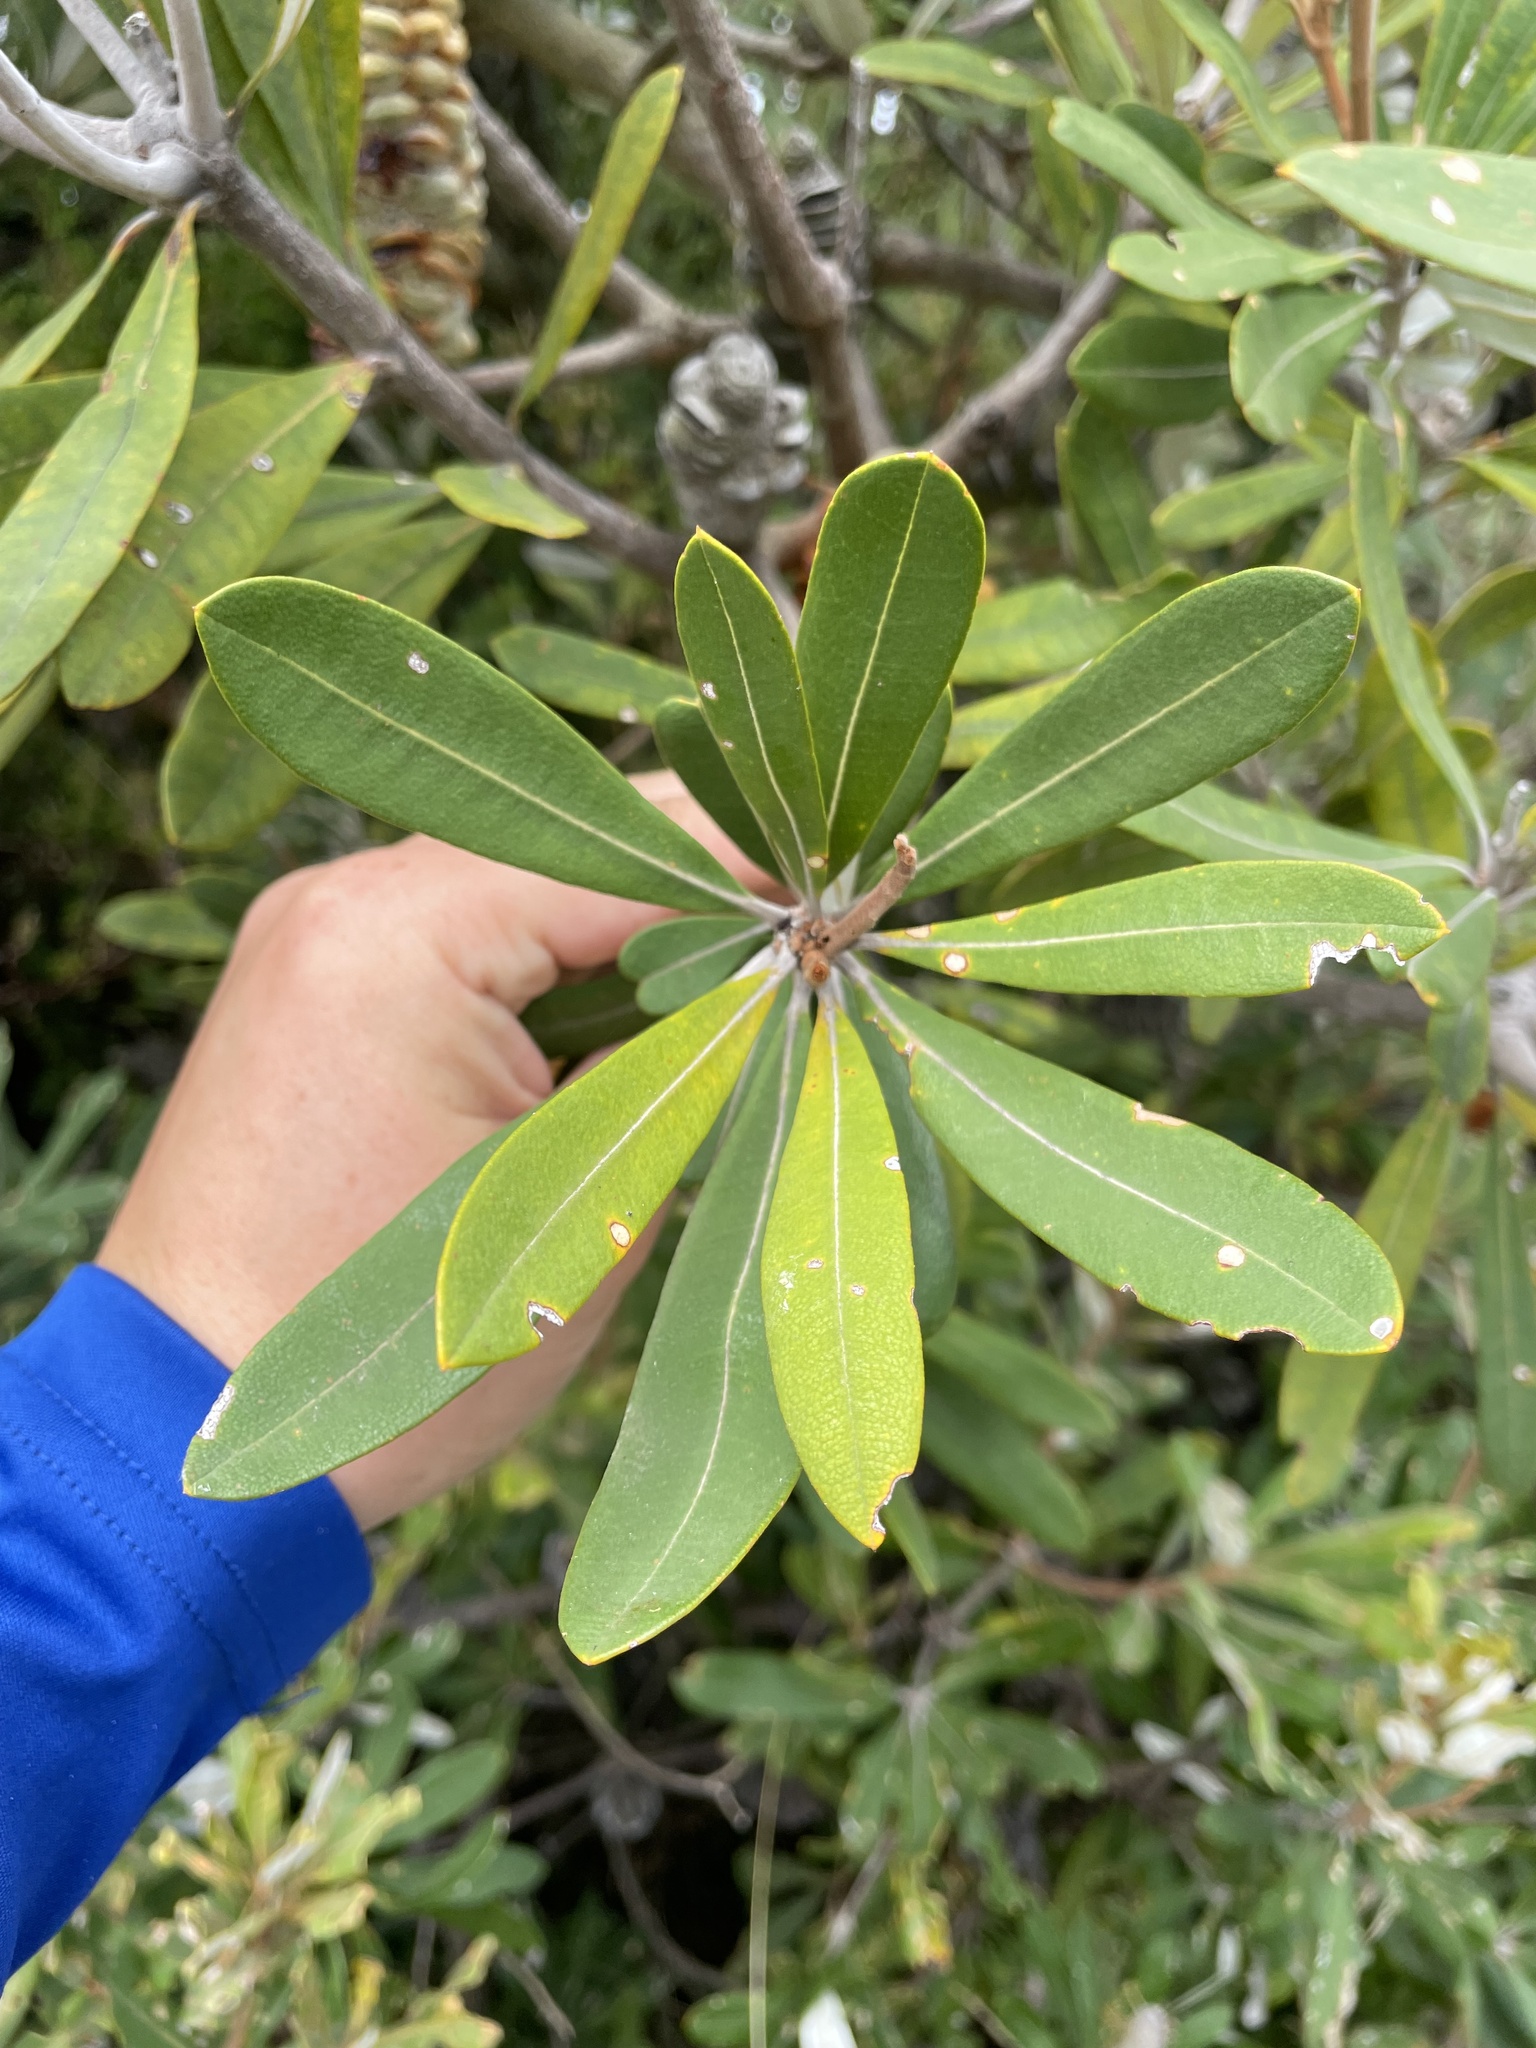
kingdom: Plantae
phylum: Tracheophyta
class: Magnoliopsida
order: Proteales
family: Proteaceae
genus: Banksia
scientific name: Banksia integrifolia
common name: White-honeysuckle
